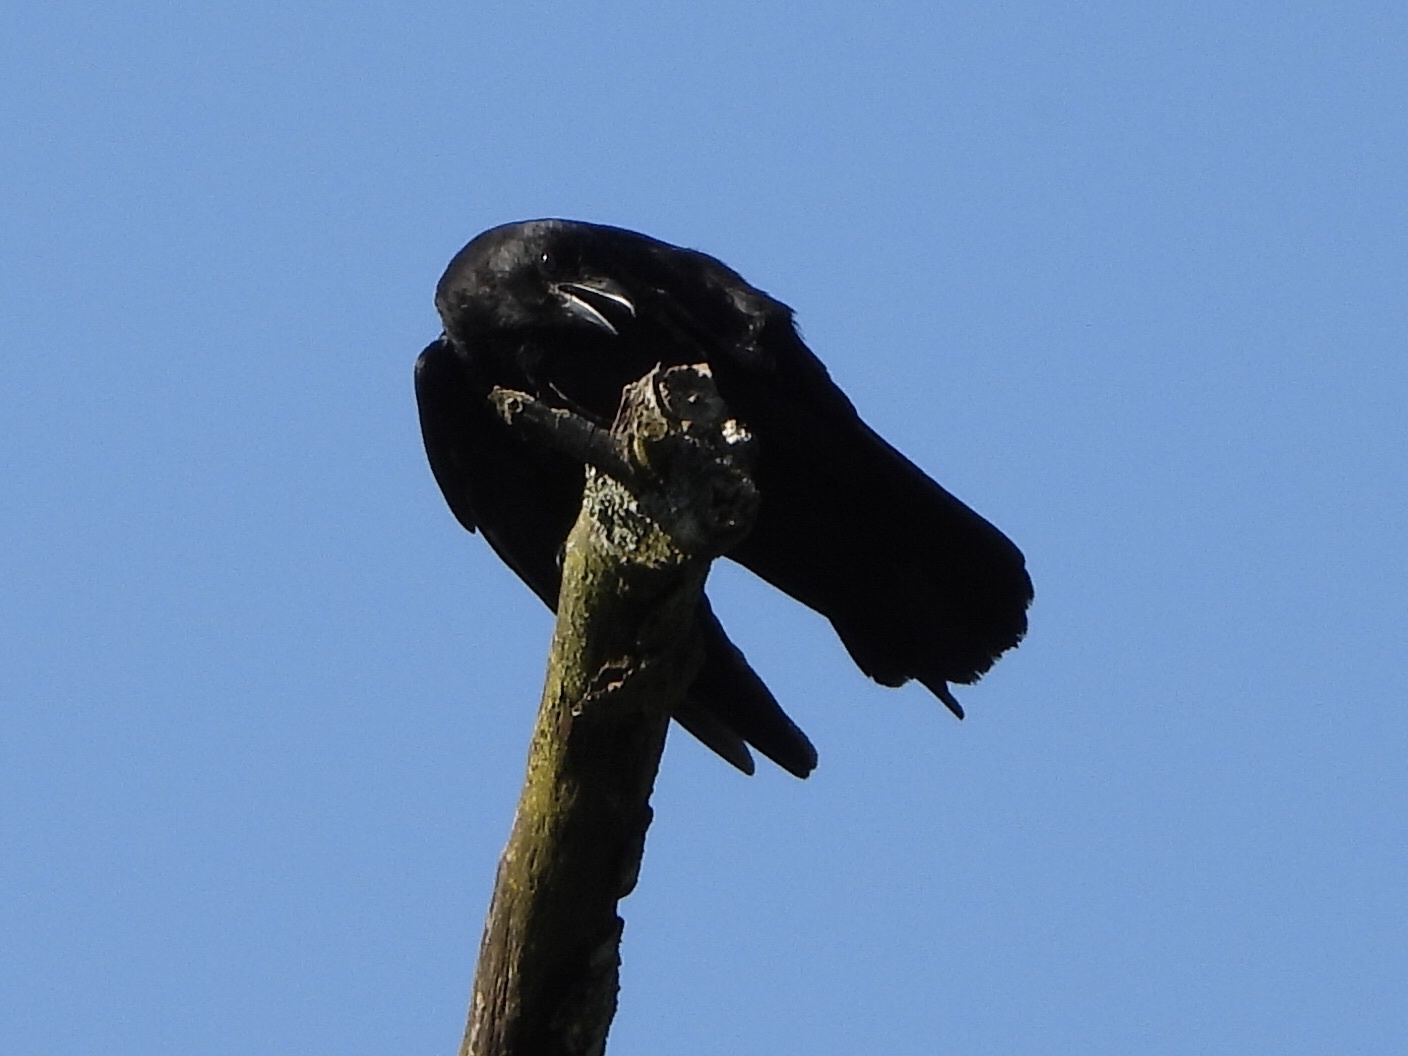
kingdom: Animalia
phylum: Chordata
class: Aves
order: Passeriformes
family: Corvidae
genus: Corvus
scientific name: Corvus brachyrhynchos
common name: American crow
